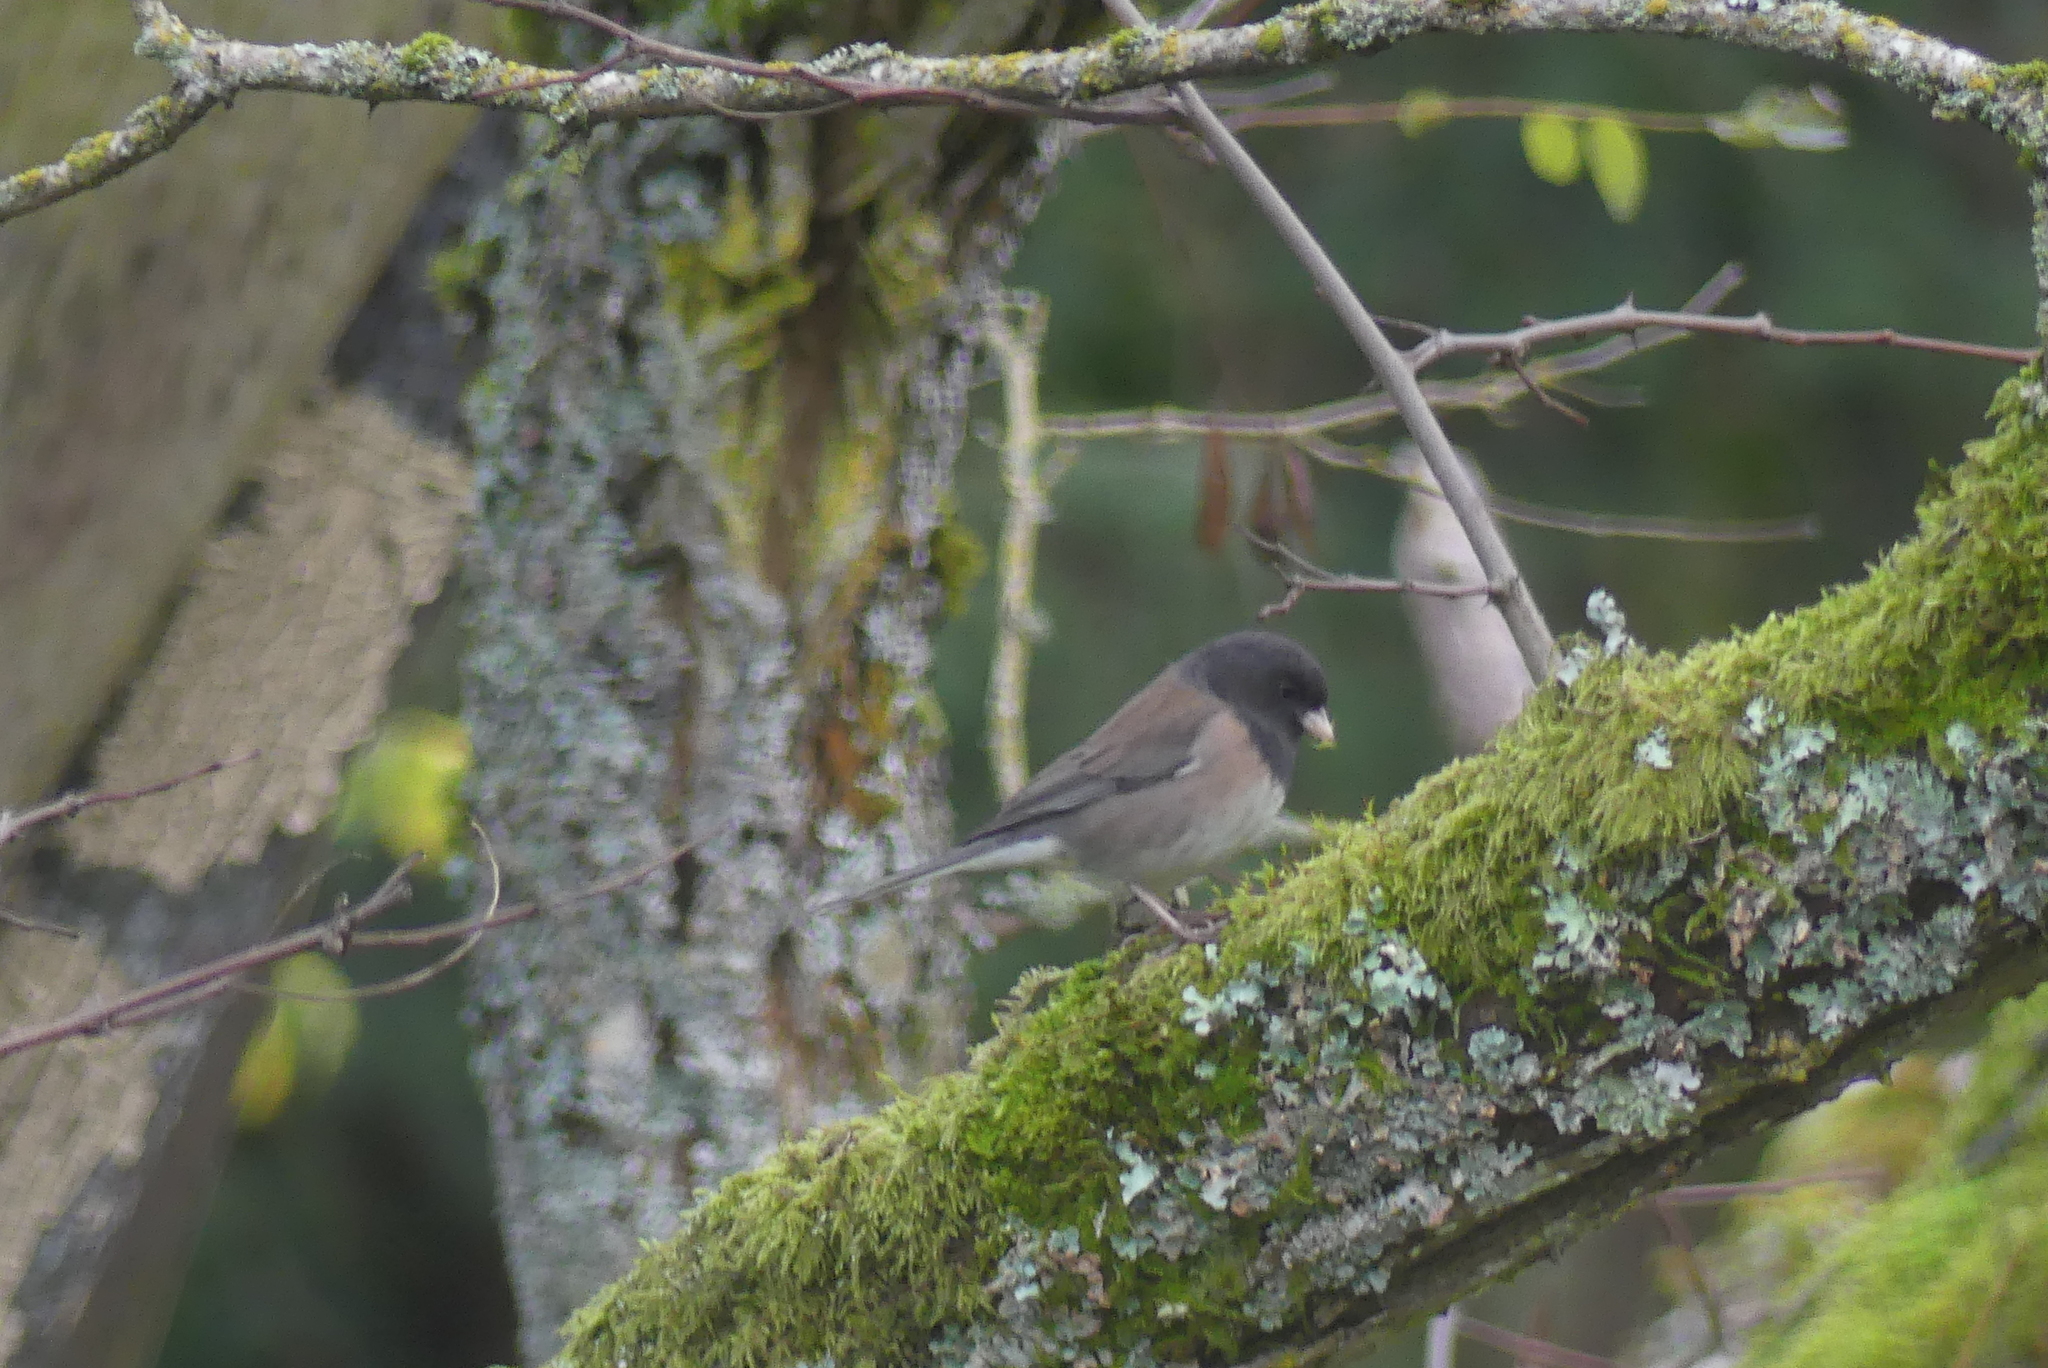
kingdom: Animalia
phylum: Chordata
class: Aves
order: Passeriformes
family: Passerellidae
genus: Junco
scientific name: Junco hyemalis
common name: Dark-eyed junco
